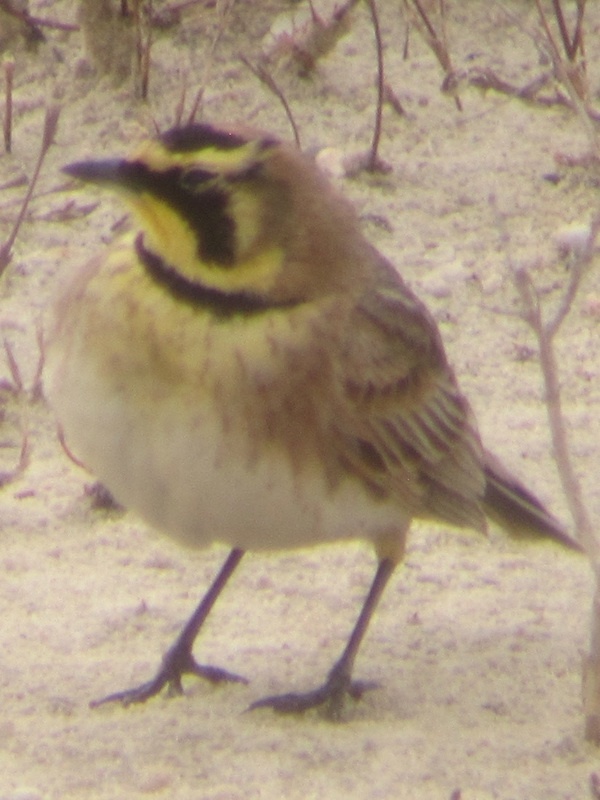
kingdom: Animalia
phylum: Chordata
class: Aves
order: Passeriformes
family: Alaudidae
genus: Eremophila
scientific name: Eremophila alpestris
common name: Horned lark
